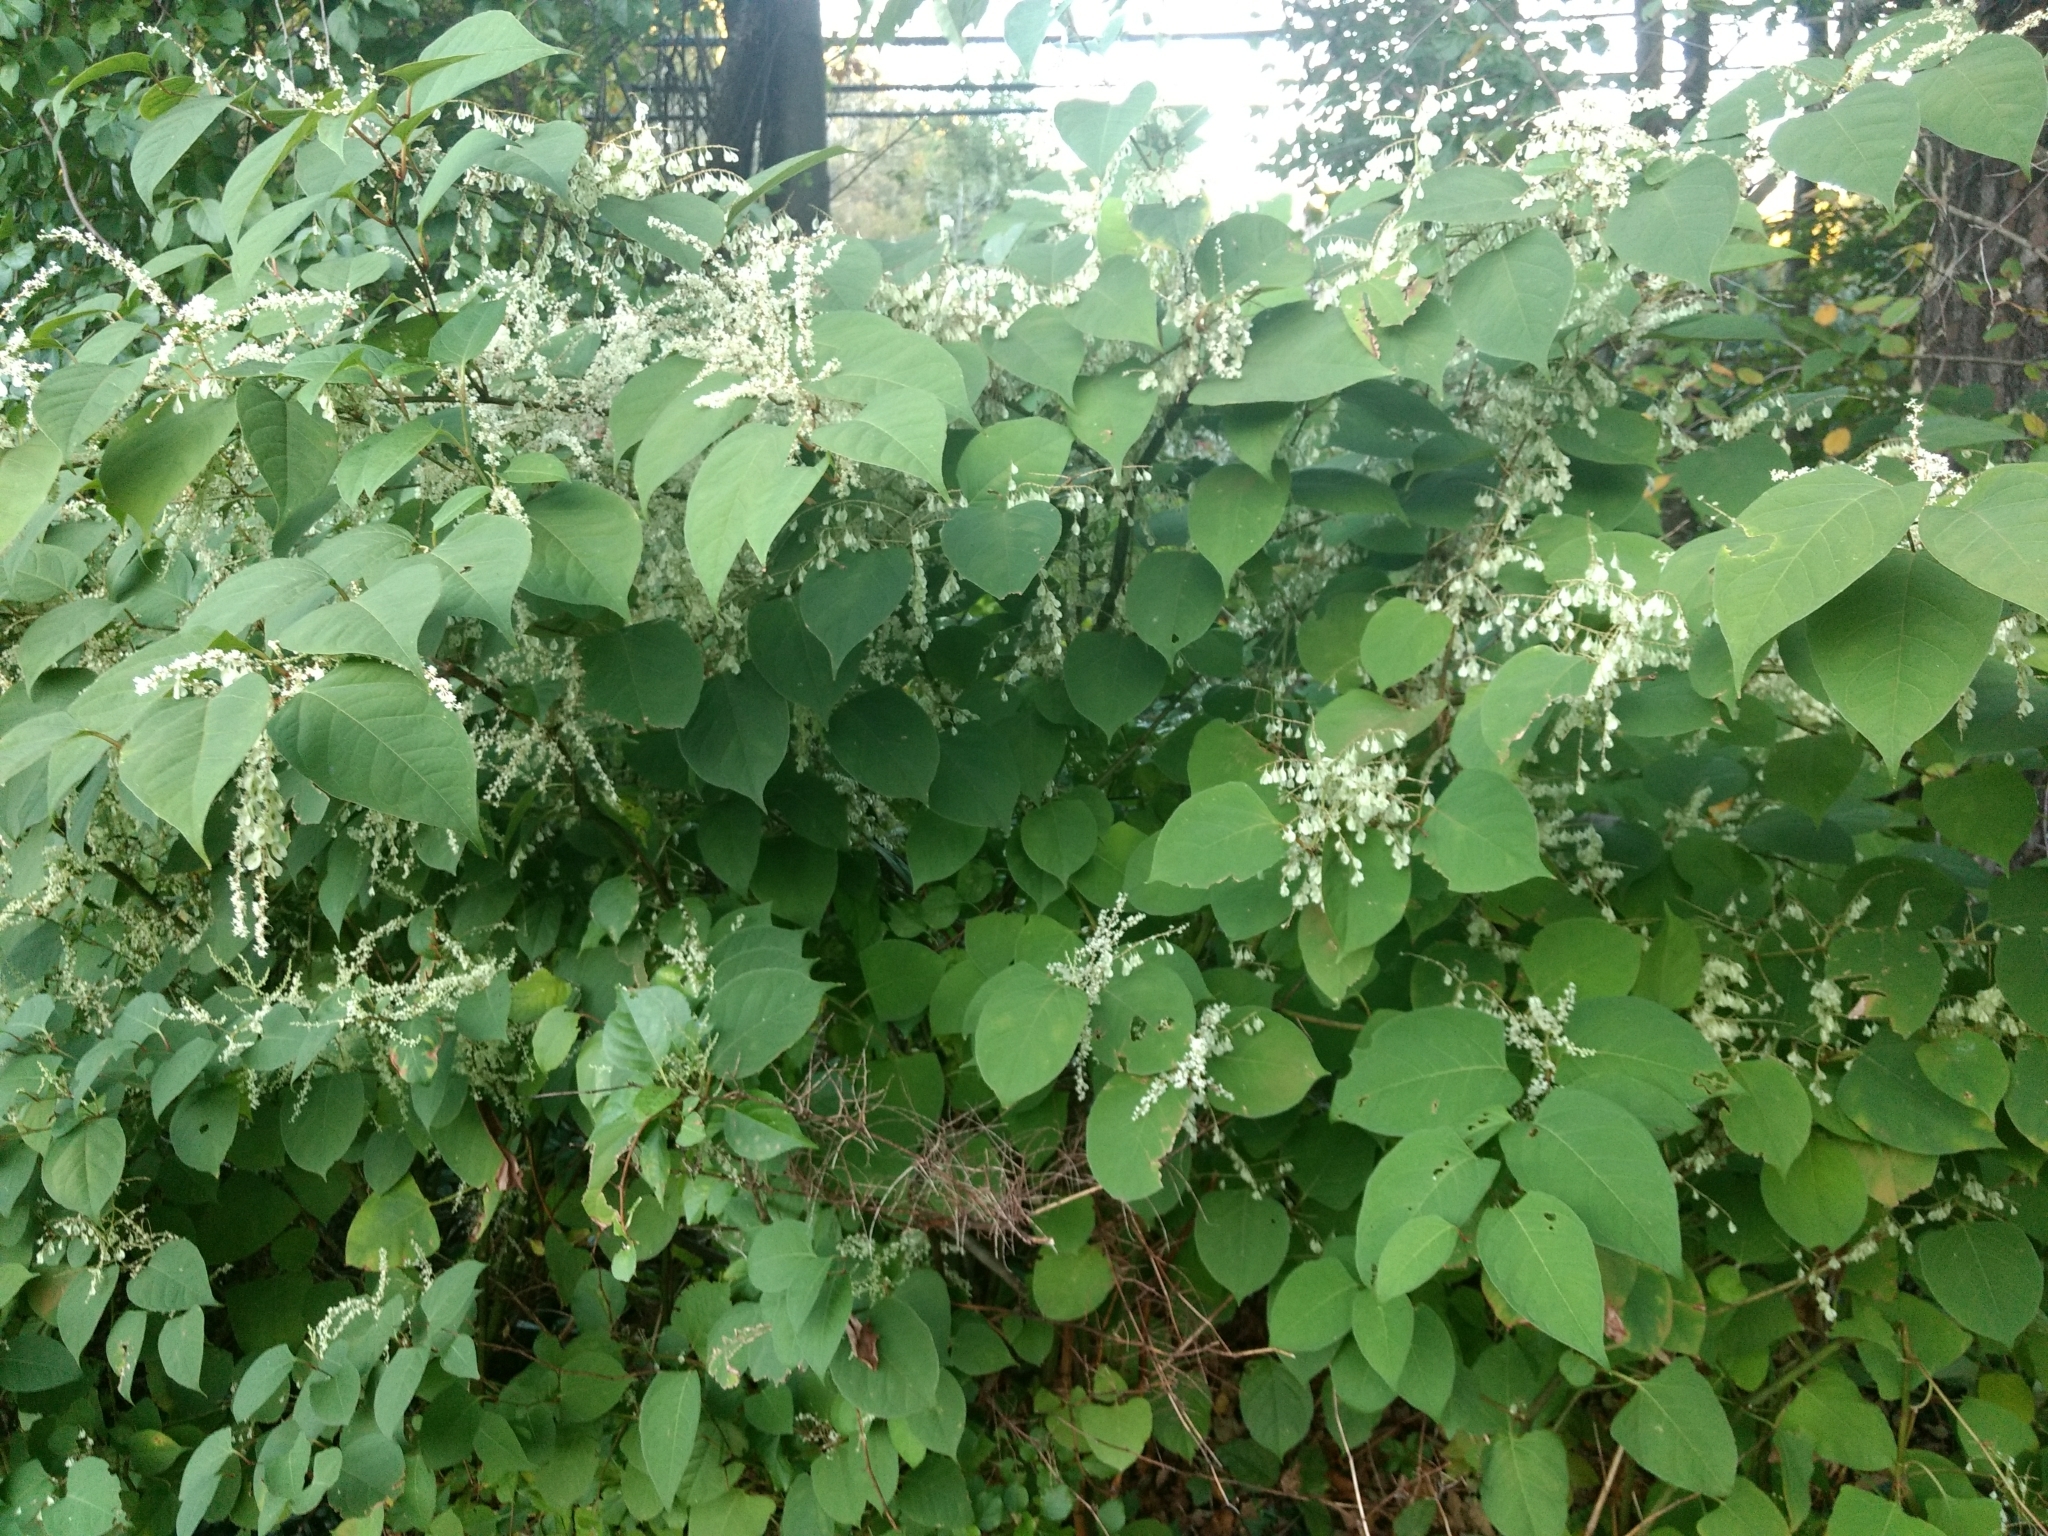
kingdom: Plantae
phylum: Tracheophyta
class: Magnoliopsida
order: Caryophyllales
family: Polygonaceae
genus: Reynoutria
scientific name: Reynoutria japonica
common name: Japanese knotweed
